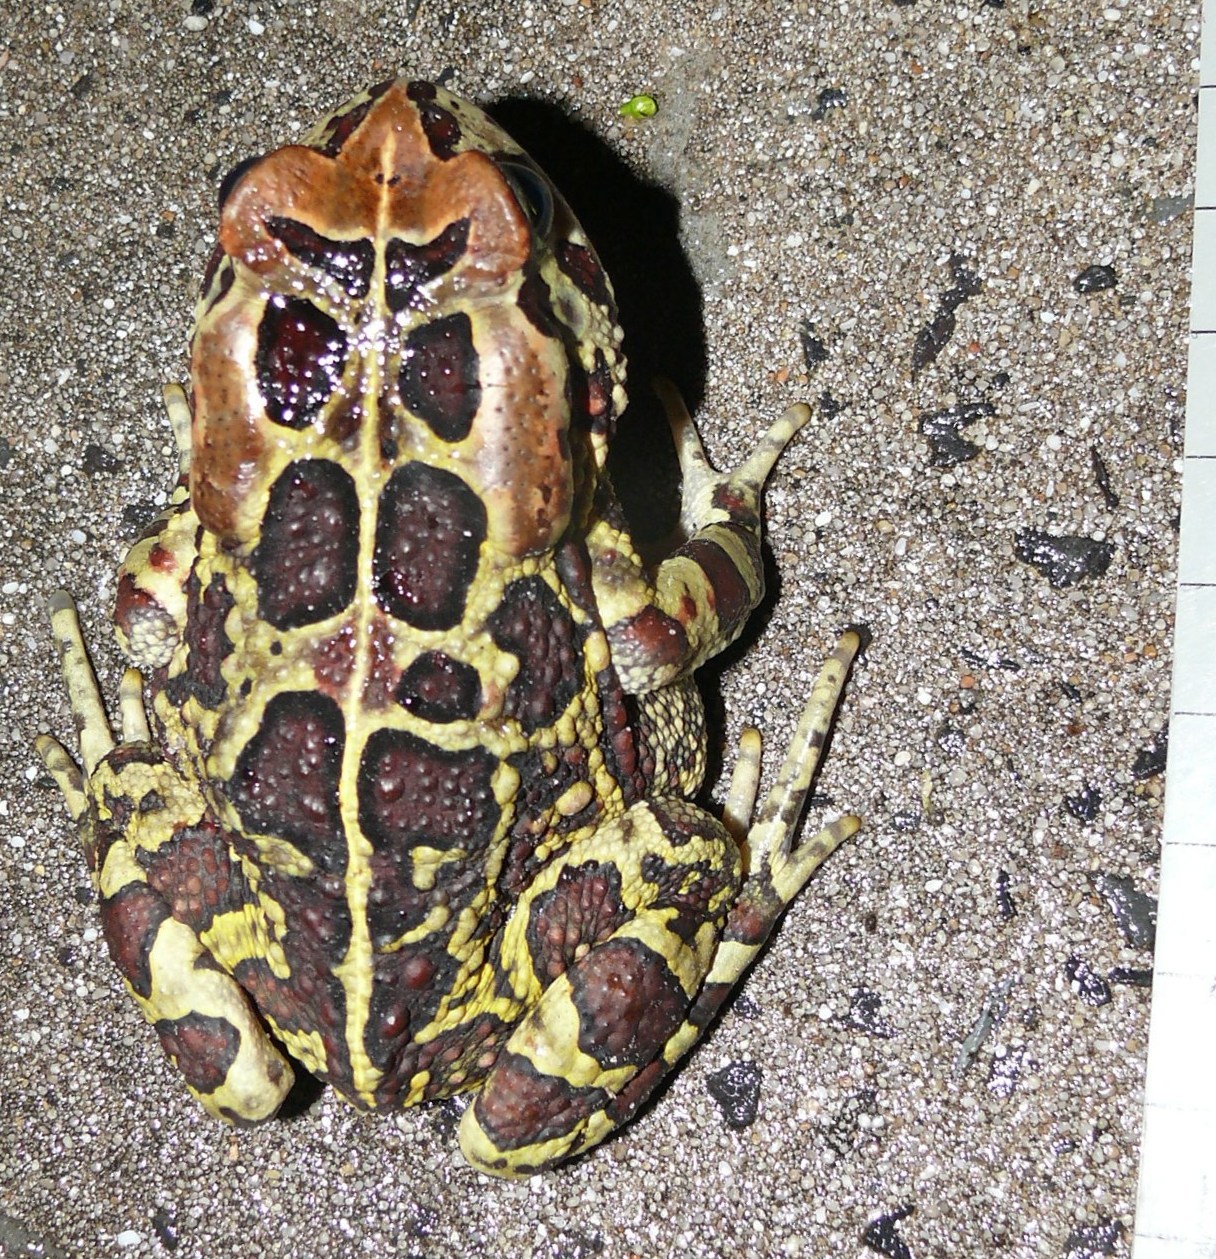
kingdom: Animalia
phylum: Chordata
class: Amphibia
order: Anura
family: Bufonidae
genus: Sclerophrys
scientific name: Sclerophrys pantherina
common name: Panther toad
